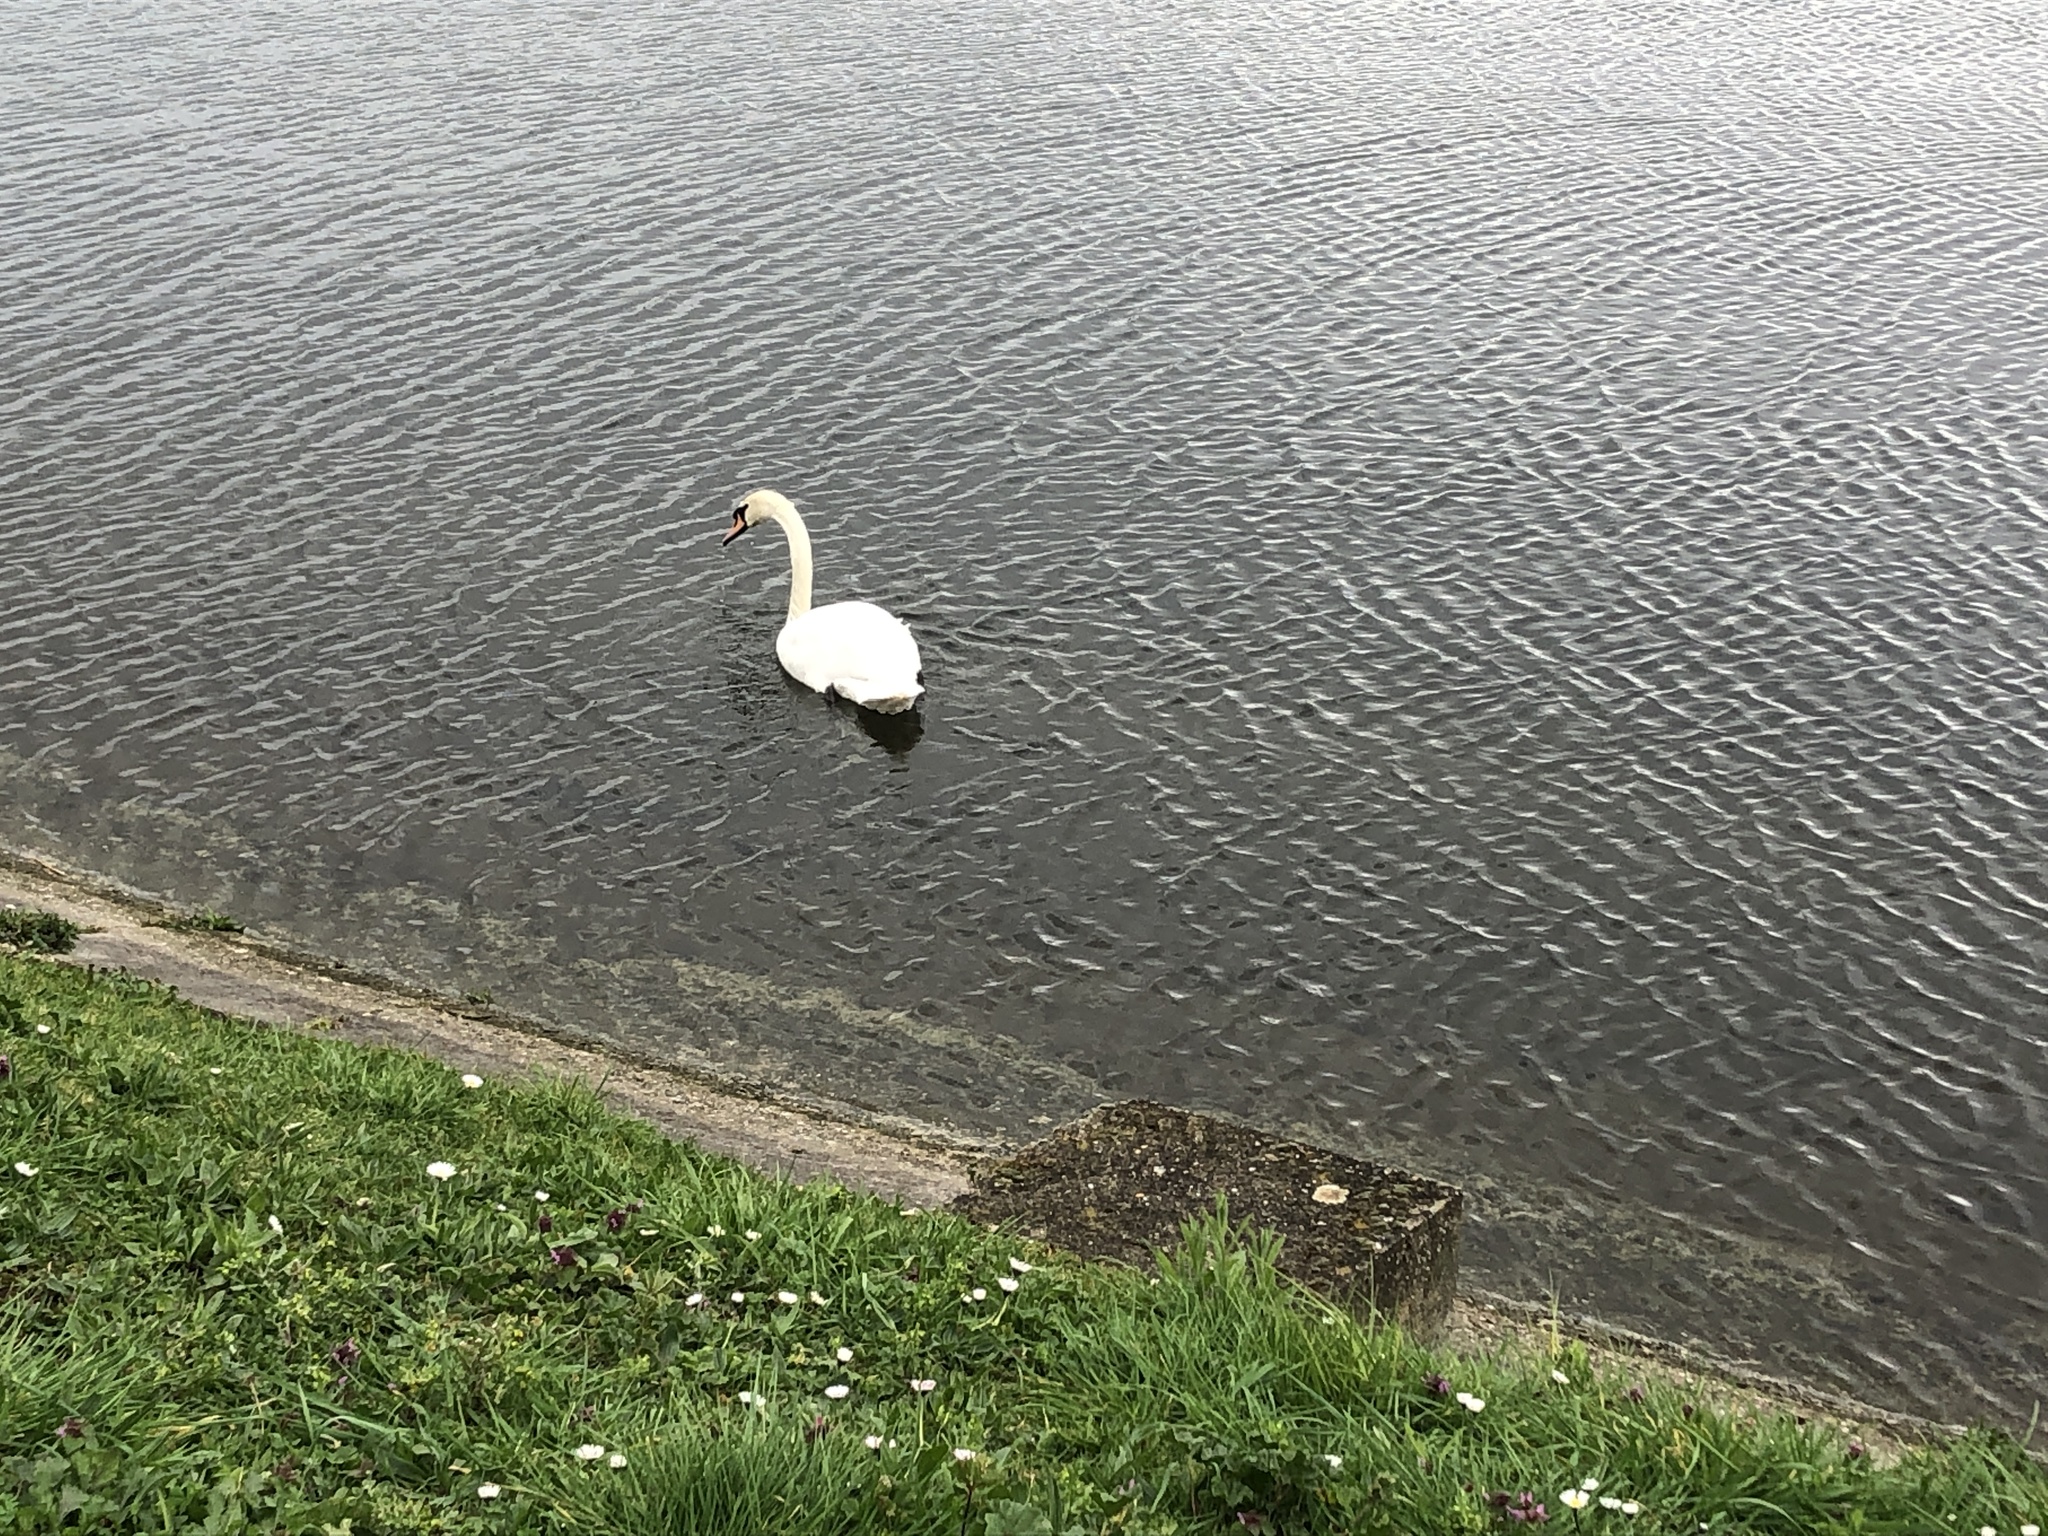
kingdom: Animalia
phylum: Chordata
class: Aves
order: Anseriformes
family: Anatidae
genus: Cygnus
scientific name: Cygnus olor
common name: Mute swan
